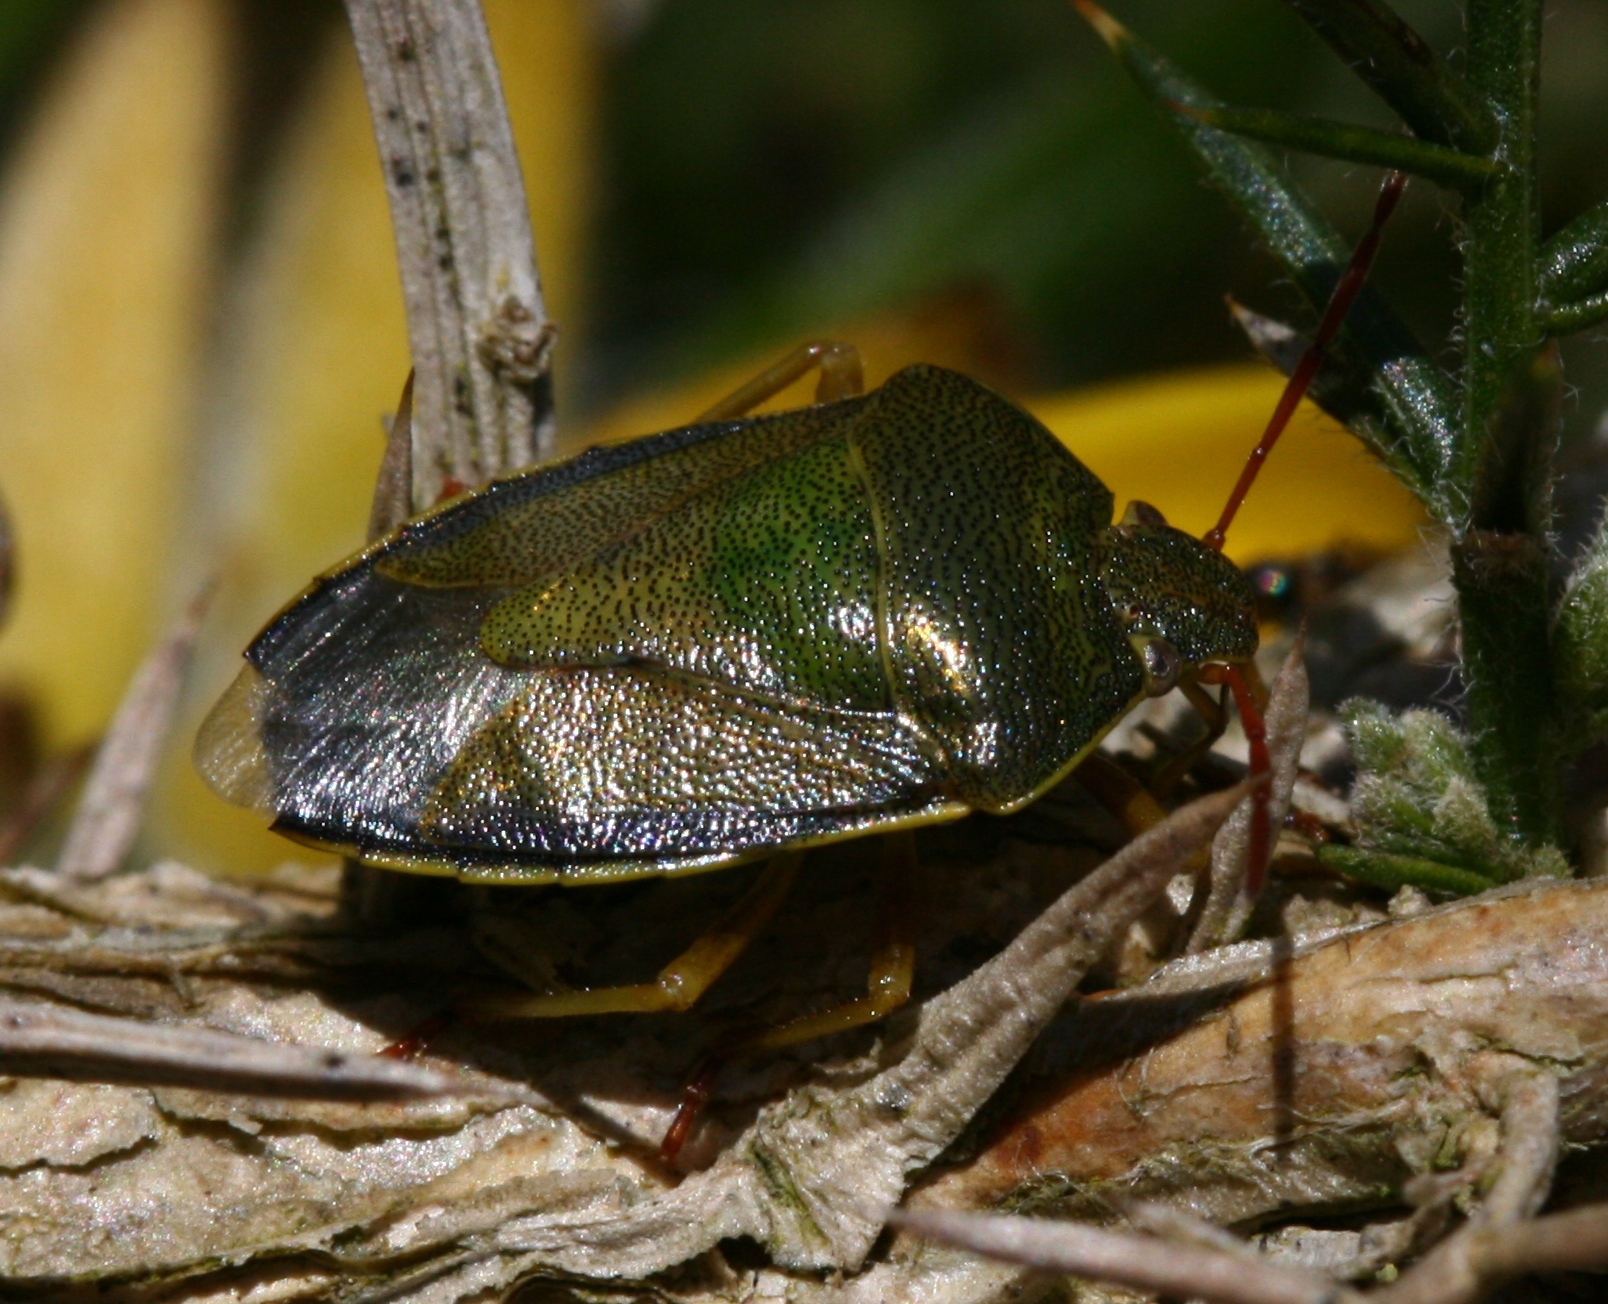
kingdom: Animalia
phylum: Arthropoda
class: Insecta
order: Hemiptera
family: Pentatomidae
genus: Piezodorus
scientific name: Piezodorus lituratus
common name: Stink bug
